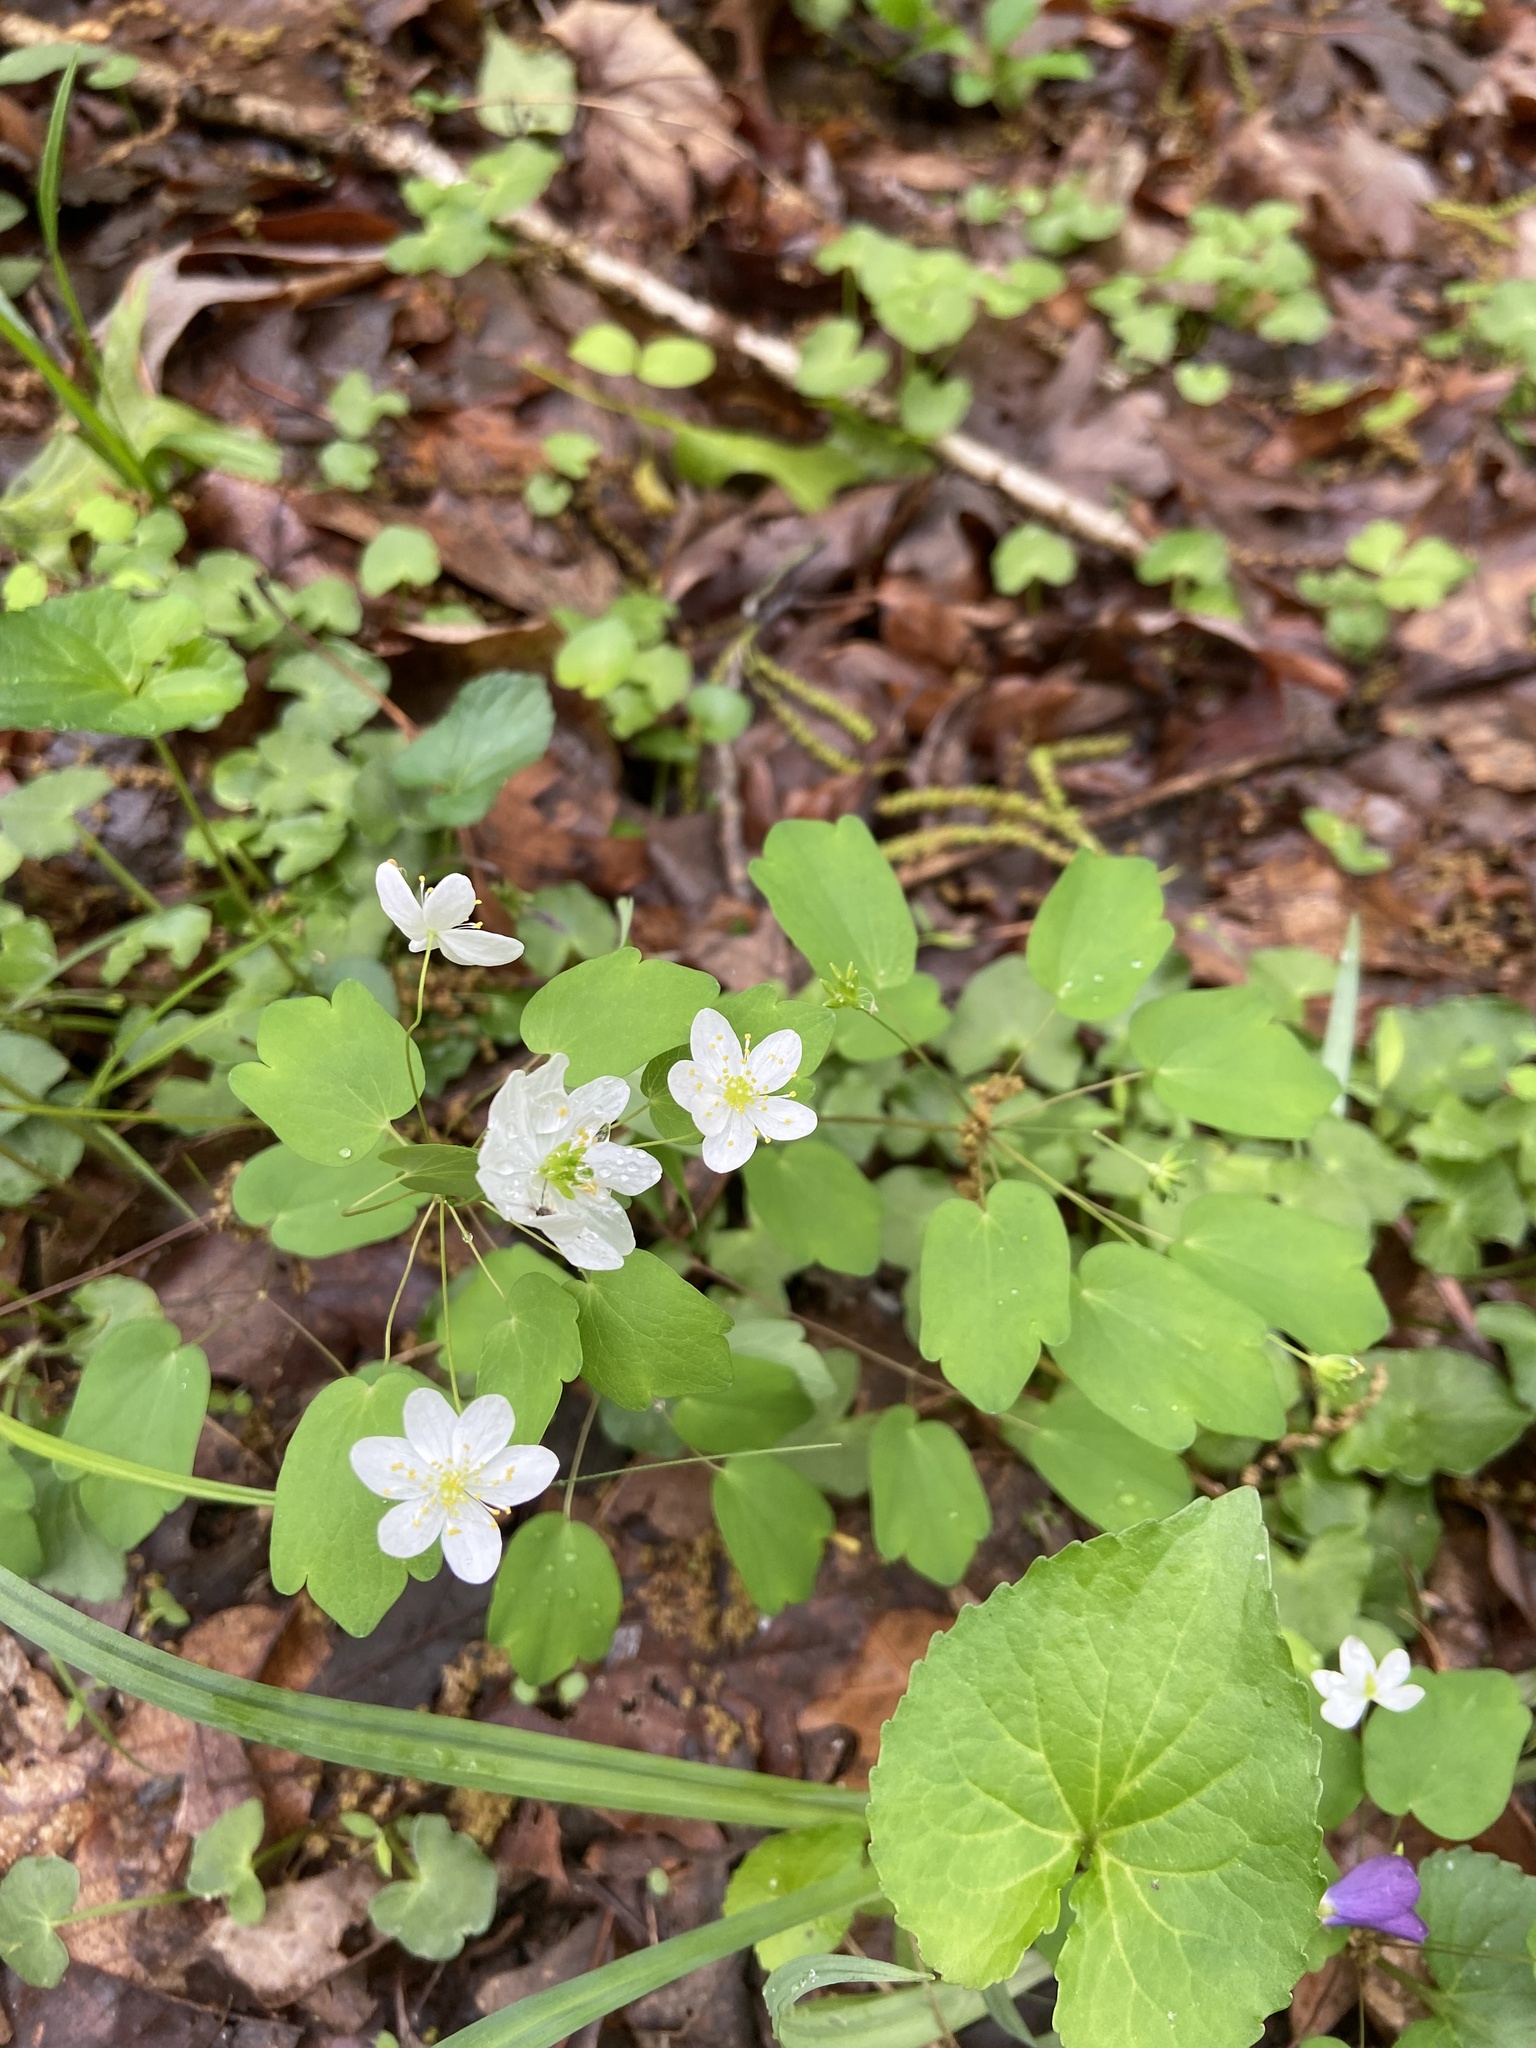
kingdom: Plantae
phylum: Tracheophyta
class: Magnoliopsida
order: Ranunculales
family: Ranunculaceae
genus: Thalictrum
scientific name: Thalictrum thalictroides
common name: Rue-anemone
